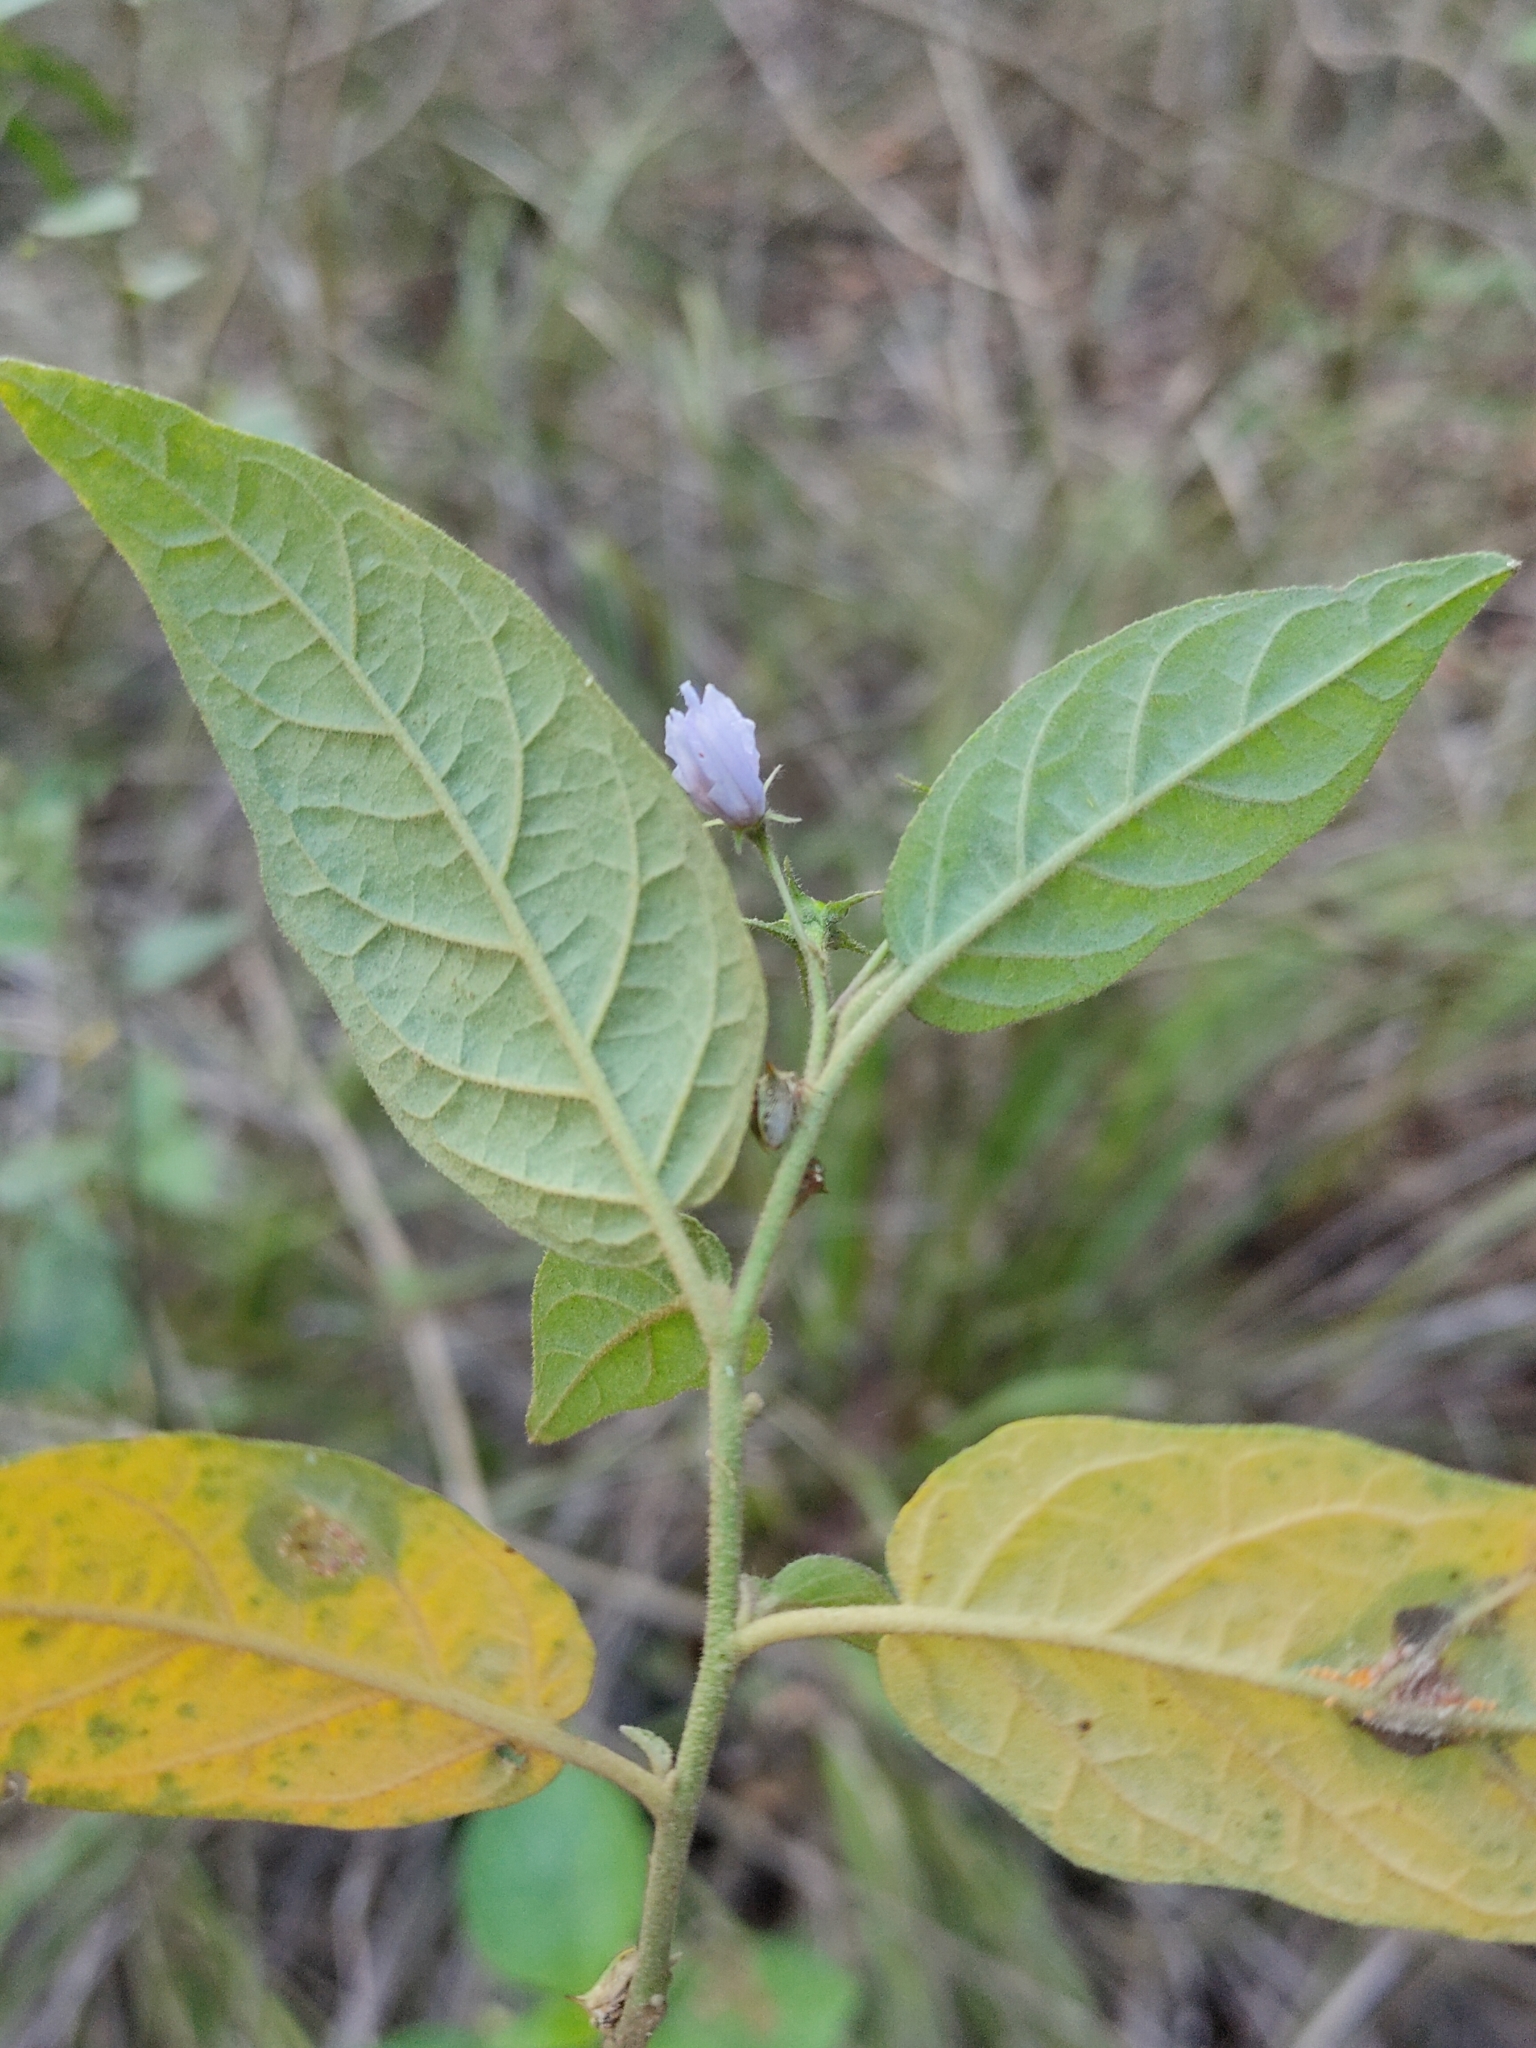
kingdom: Plantae
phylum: Tracheophyta
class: Magnoliopsida
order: Solanales
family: Solanaceae
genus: Solanum
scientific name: Solanum stelligerum
